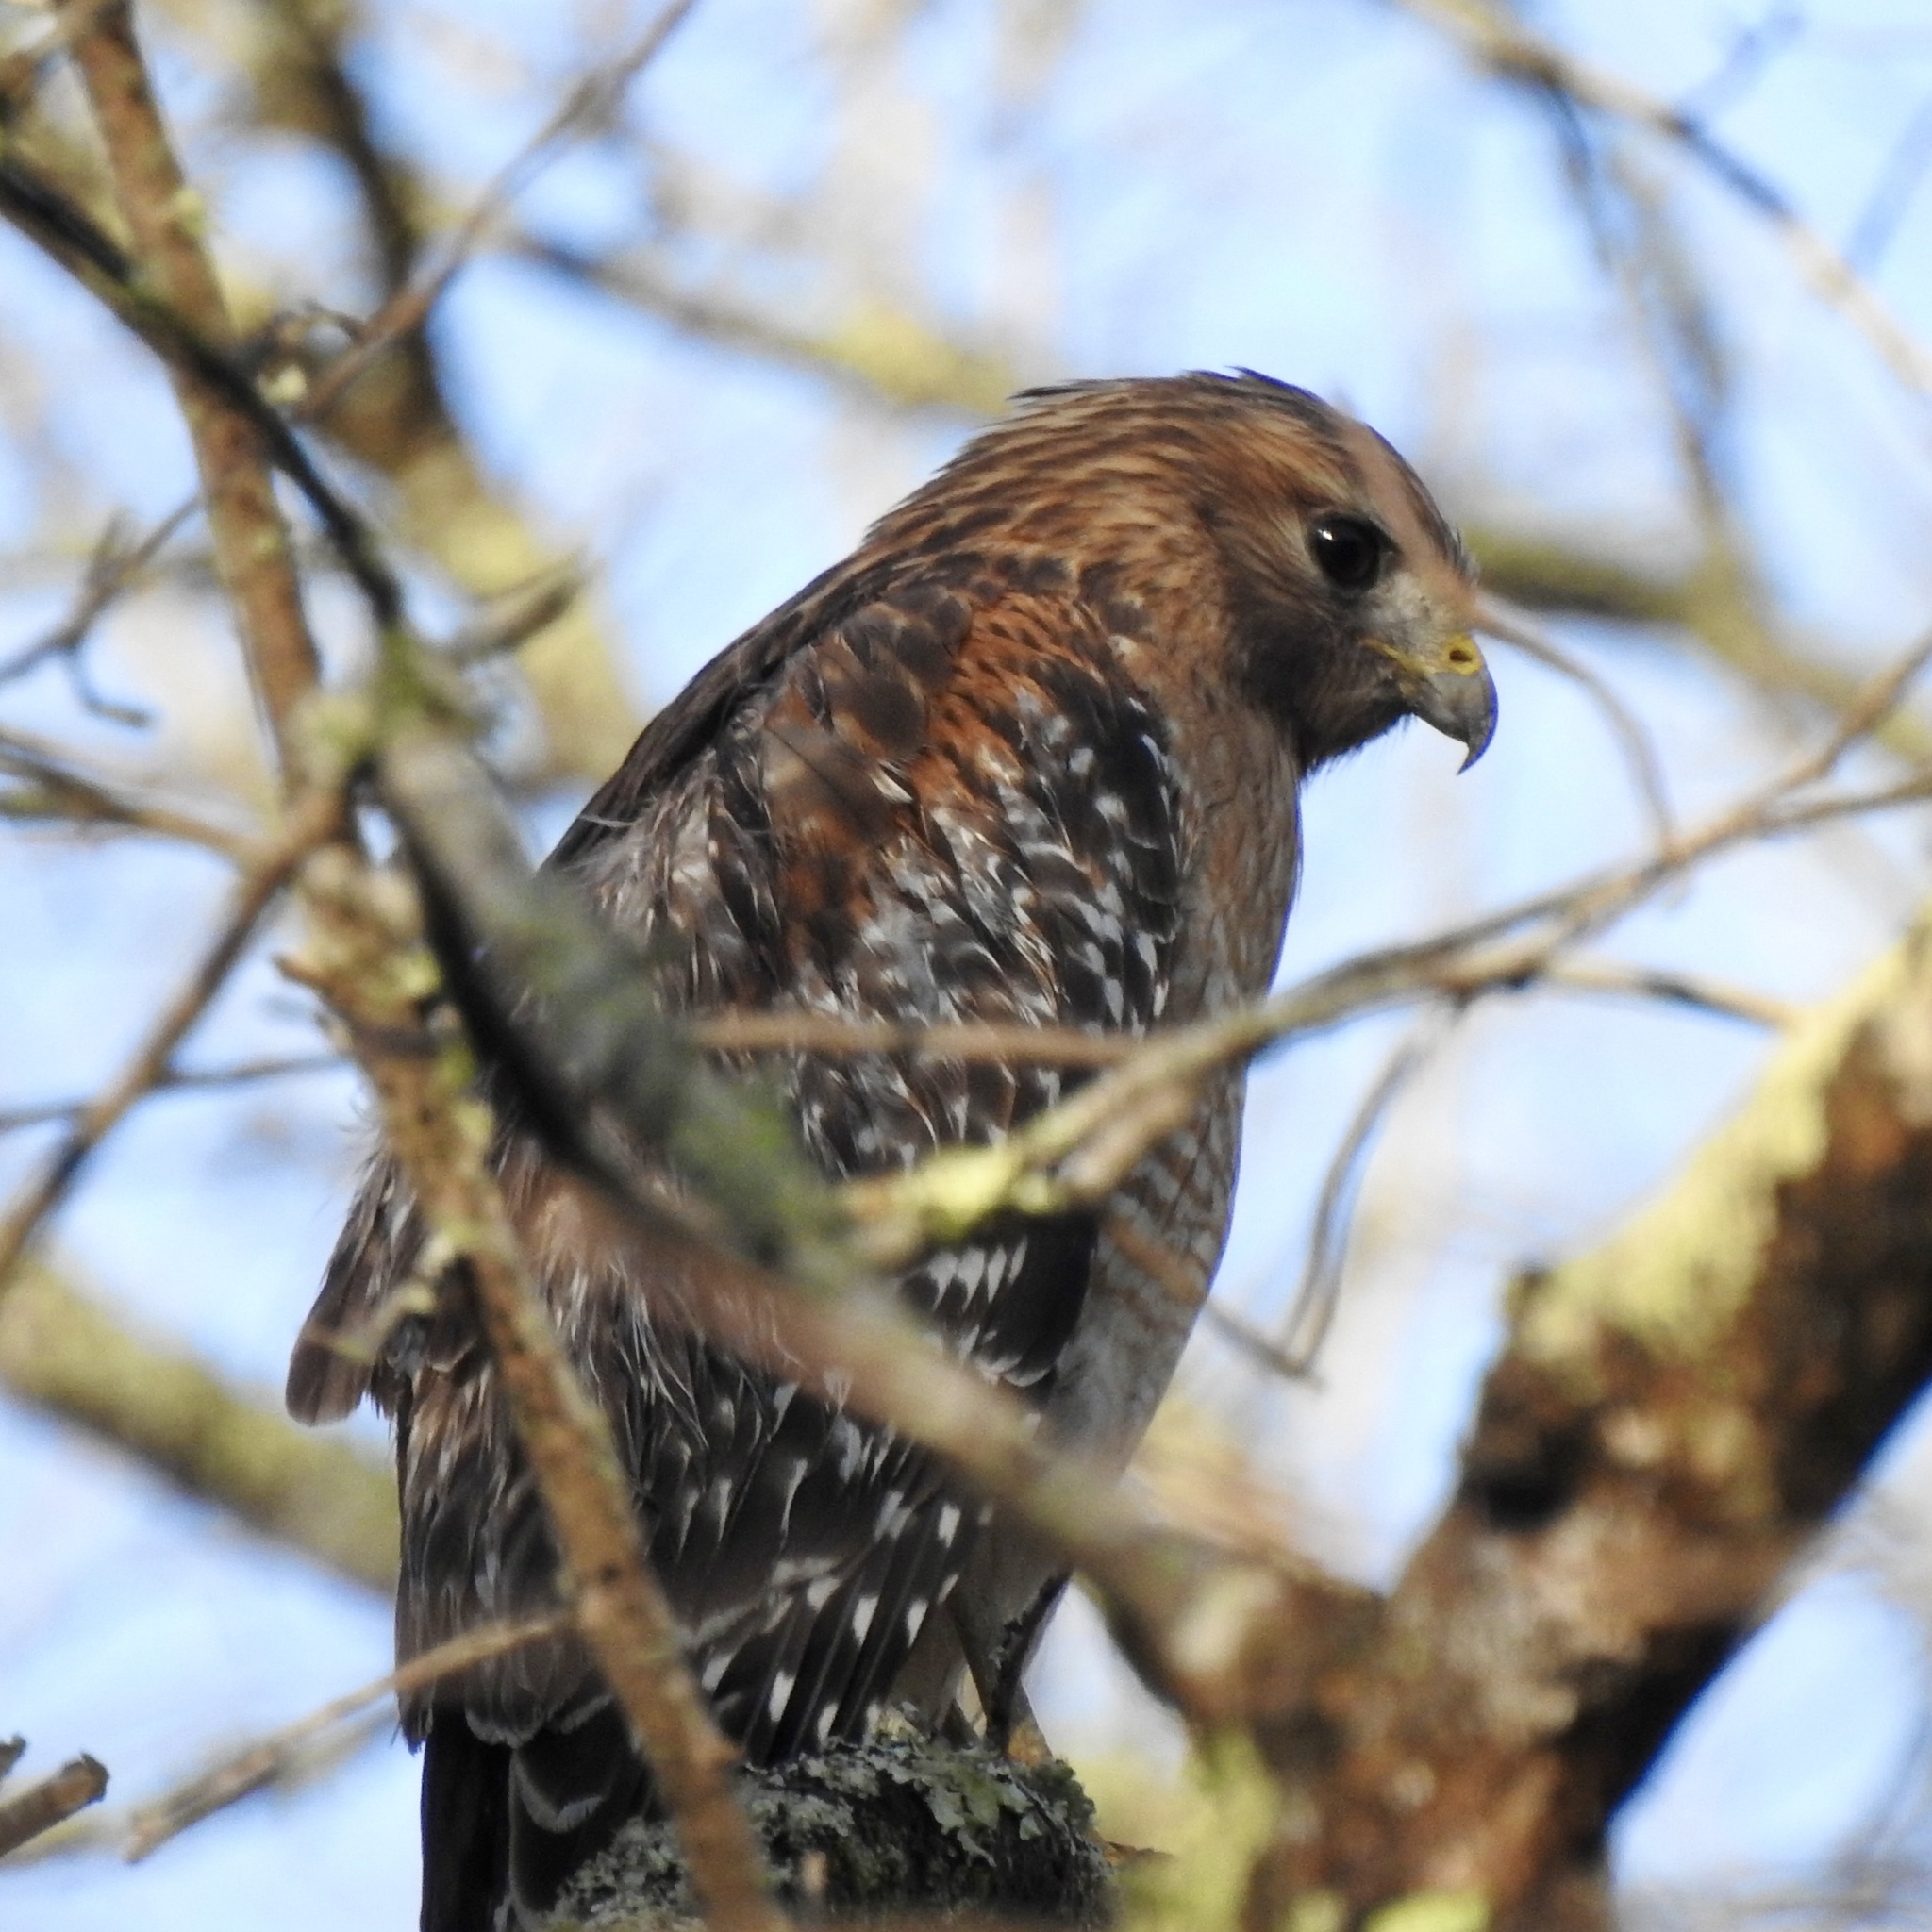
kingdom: Animalia
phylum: Chordata
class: Aves
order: Accipitriformes
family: Accipitridae
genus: Buteo
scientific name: Buteo lineatus
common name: Red-shouldered hawk
